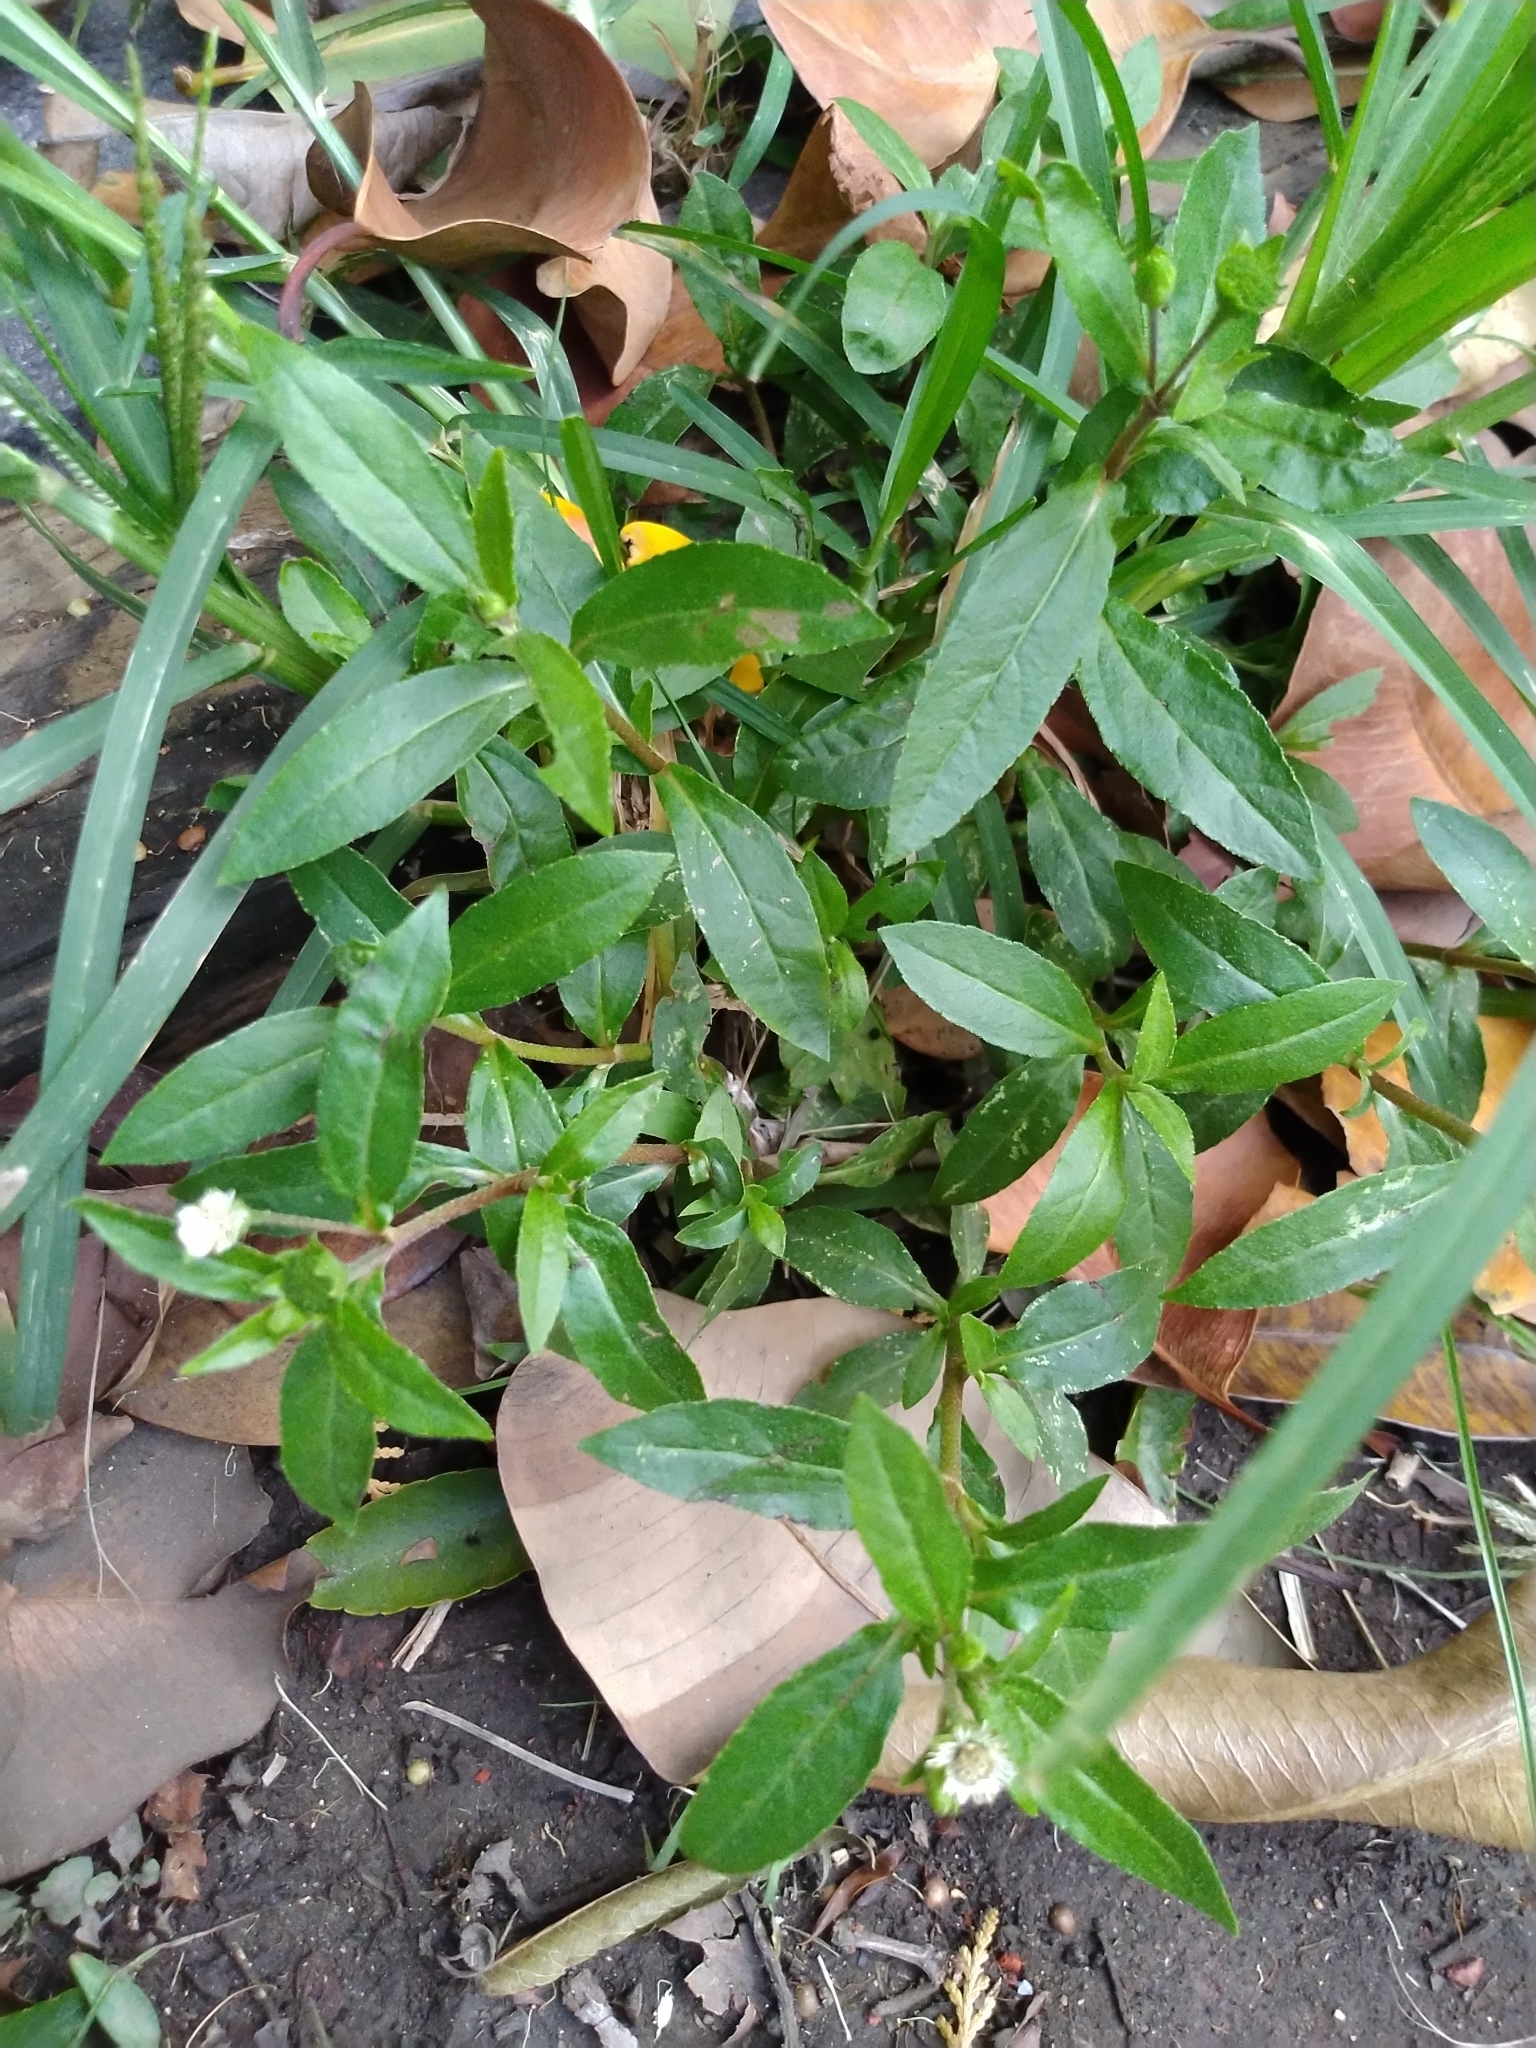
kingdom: Plantae
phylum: Tracheophyta
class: Magnoliopsida
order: Asterales
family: Asteraceae
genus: Eclipta
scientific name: Eclipta prostrata
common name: False daisy
